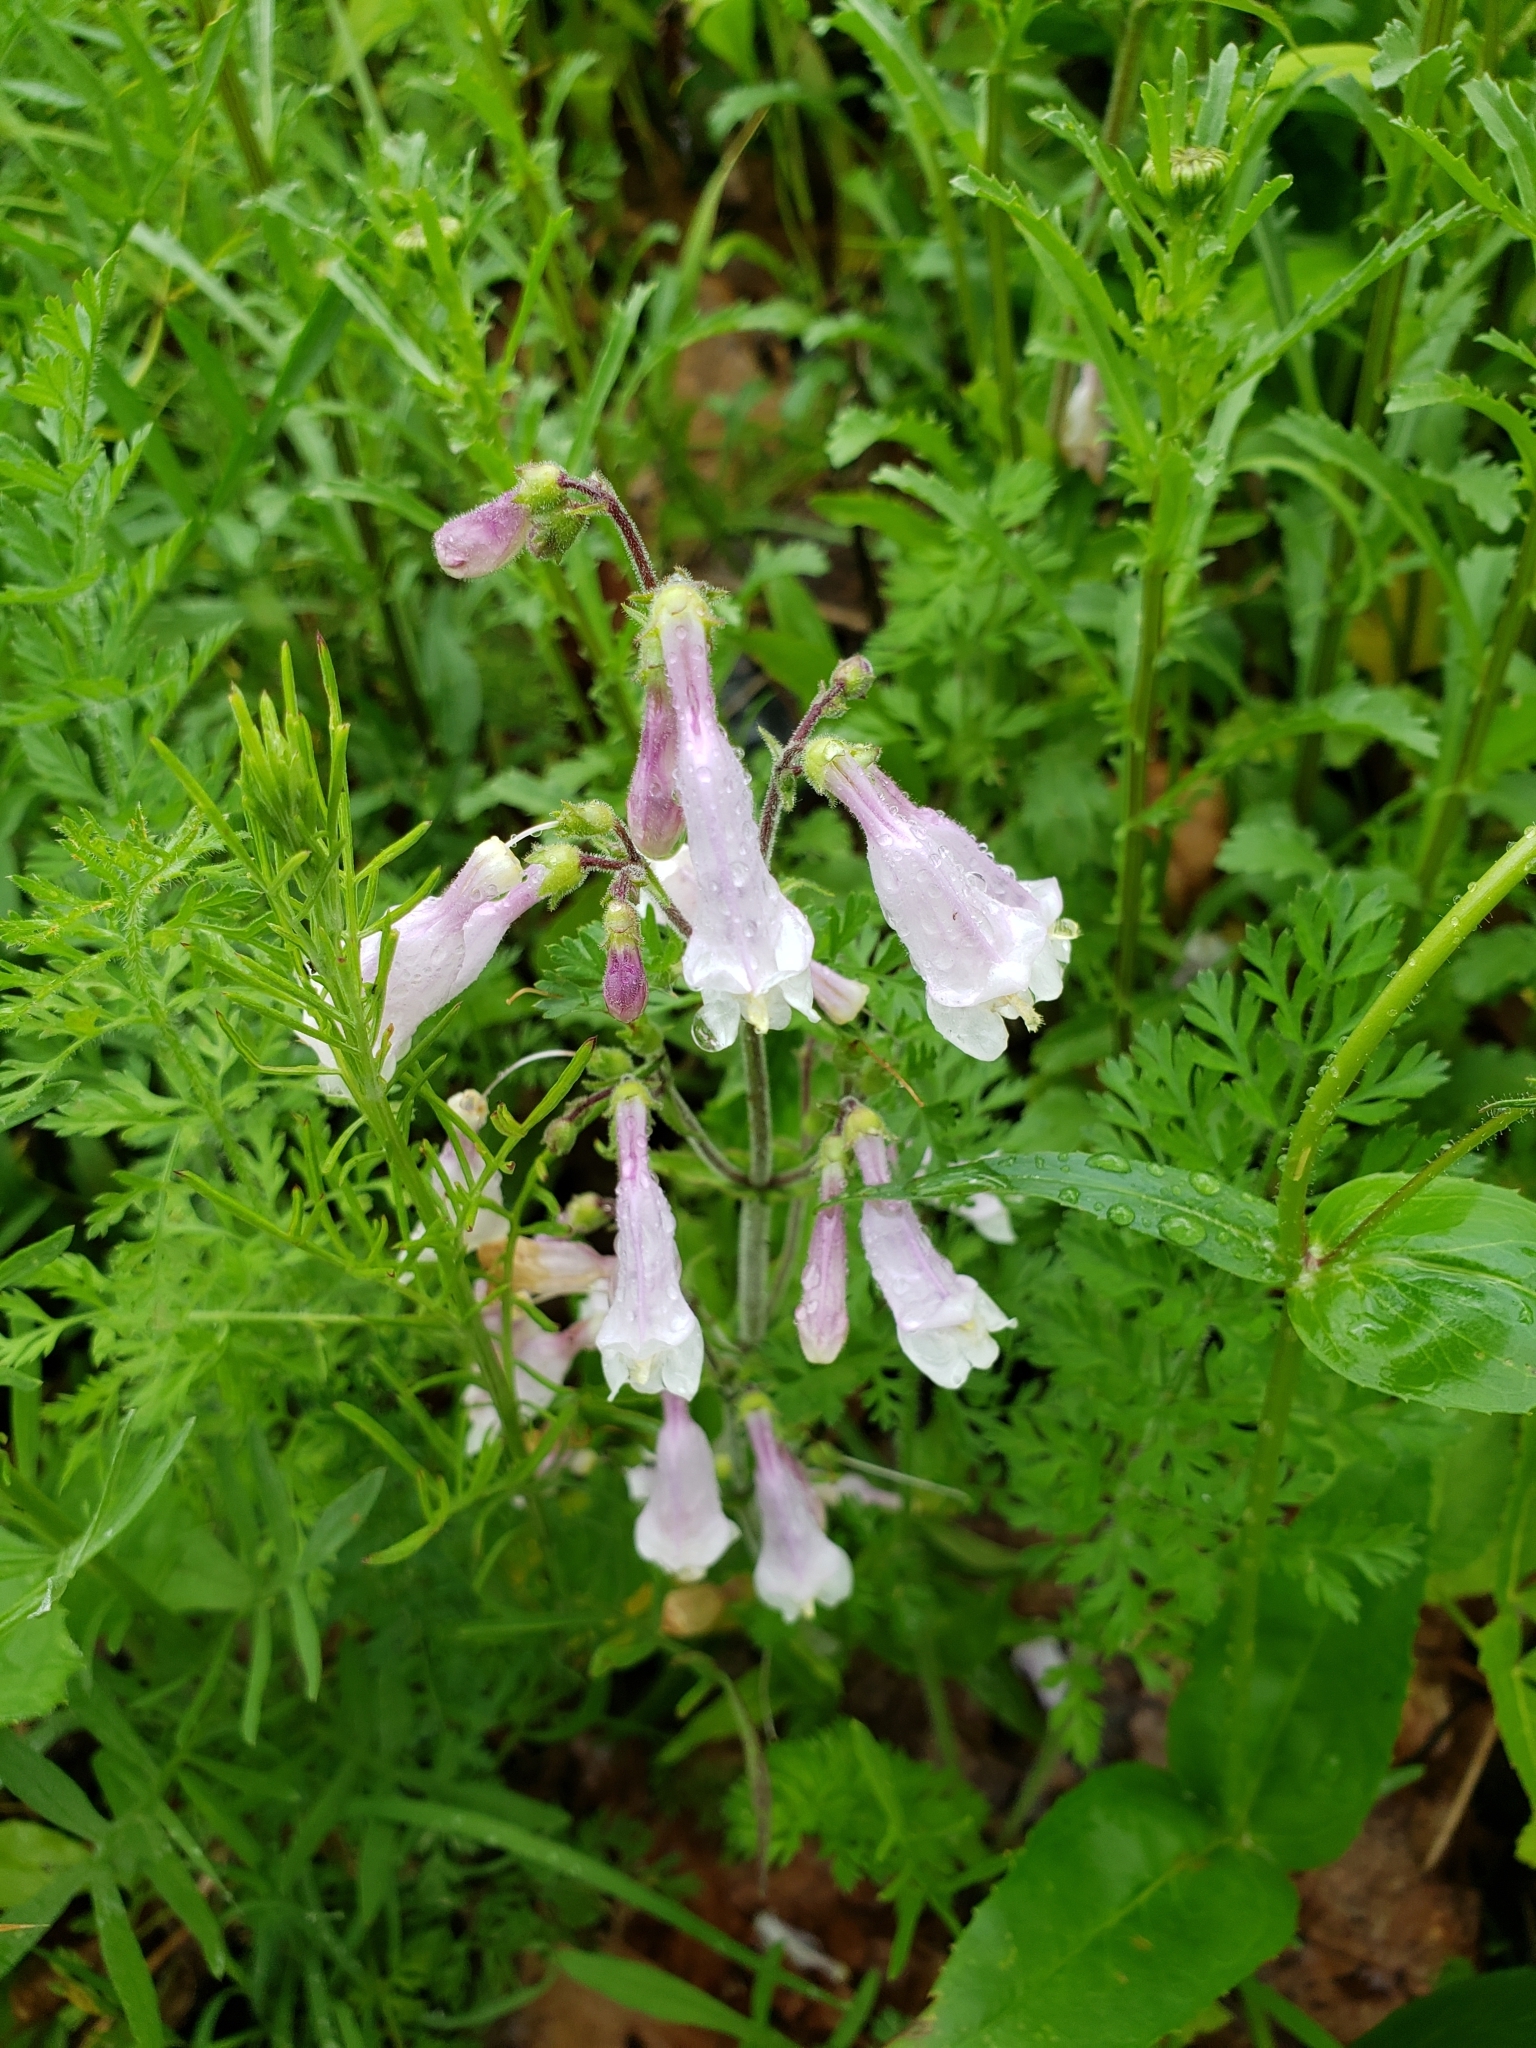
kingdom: Plantae
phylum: Tracheophyta
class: Magnoliopsida
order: Lamiales
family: Plantaginaceae
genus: Penstemon
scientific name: Penstemon hirsutus
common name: Hairy beardtongue
